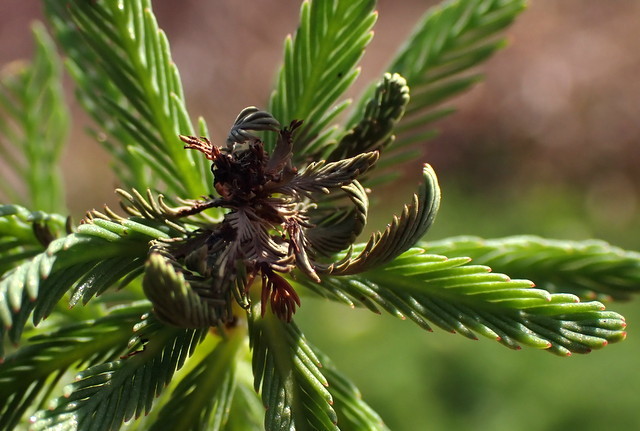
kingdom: Plantae
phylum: Tracheophyta
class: Magnoliopsida
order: Saxifragales
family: Haloragaceae
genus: Myriophyllum
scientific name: Myriophyllum aquaticum
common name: Parrot's feather
